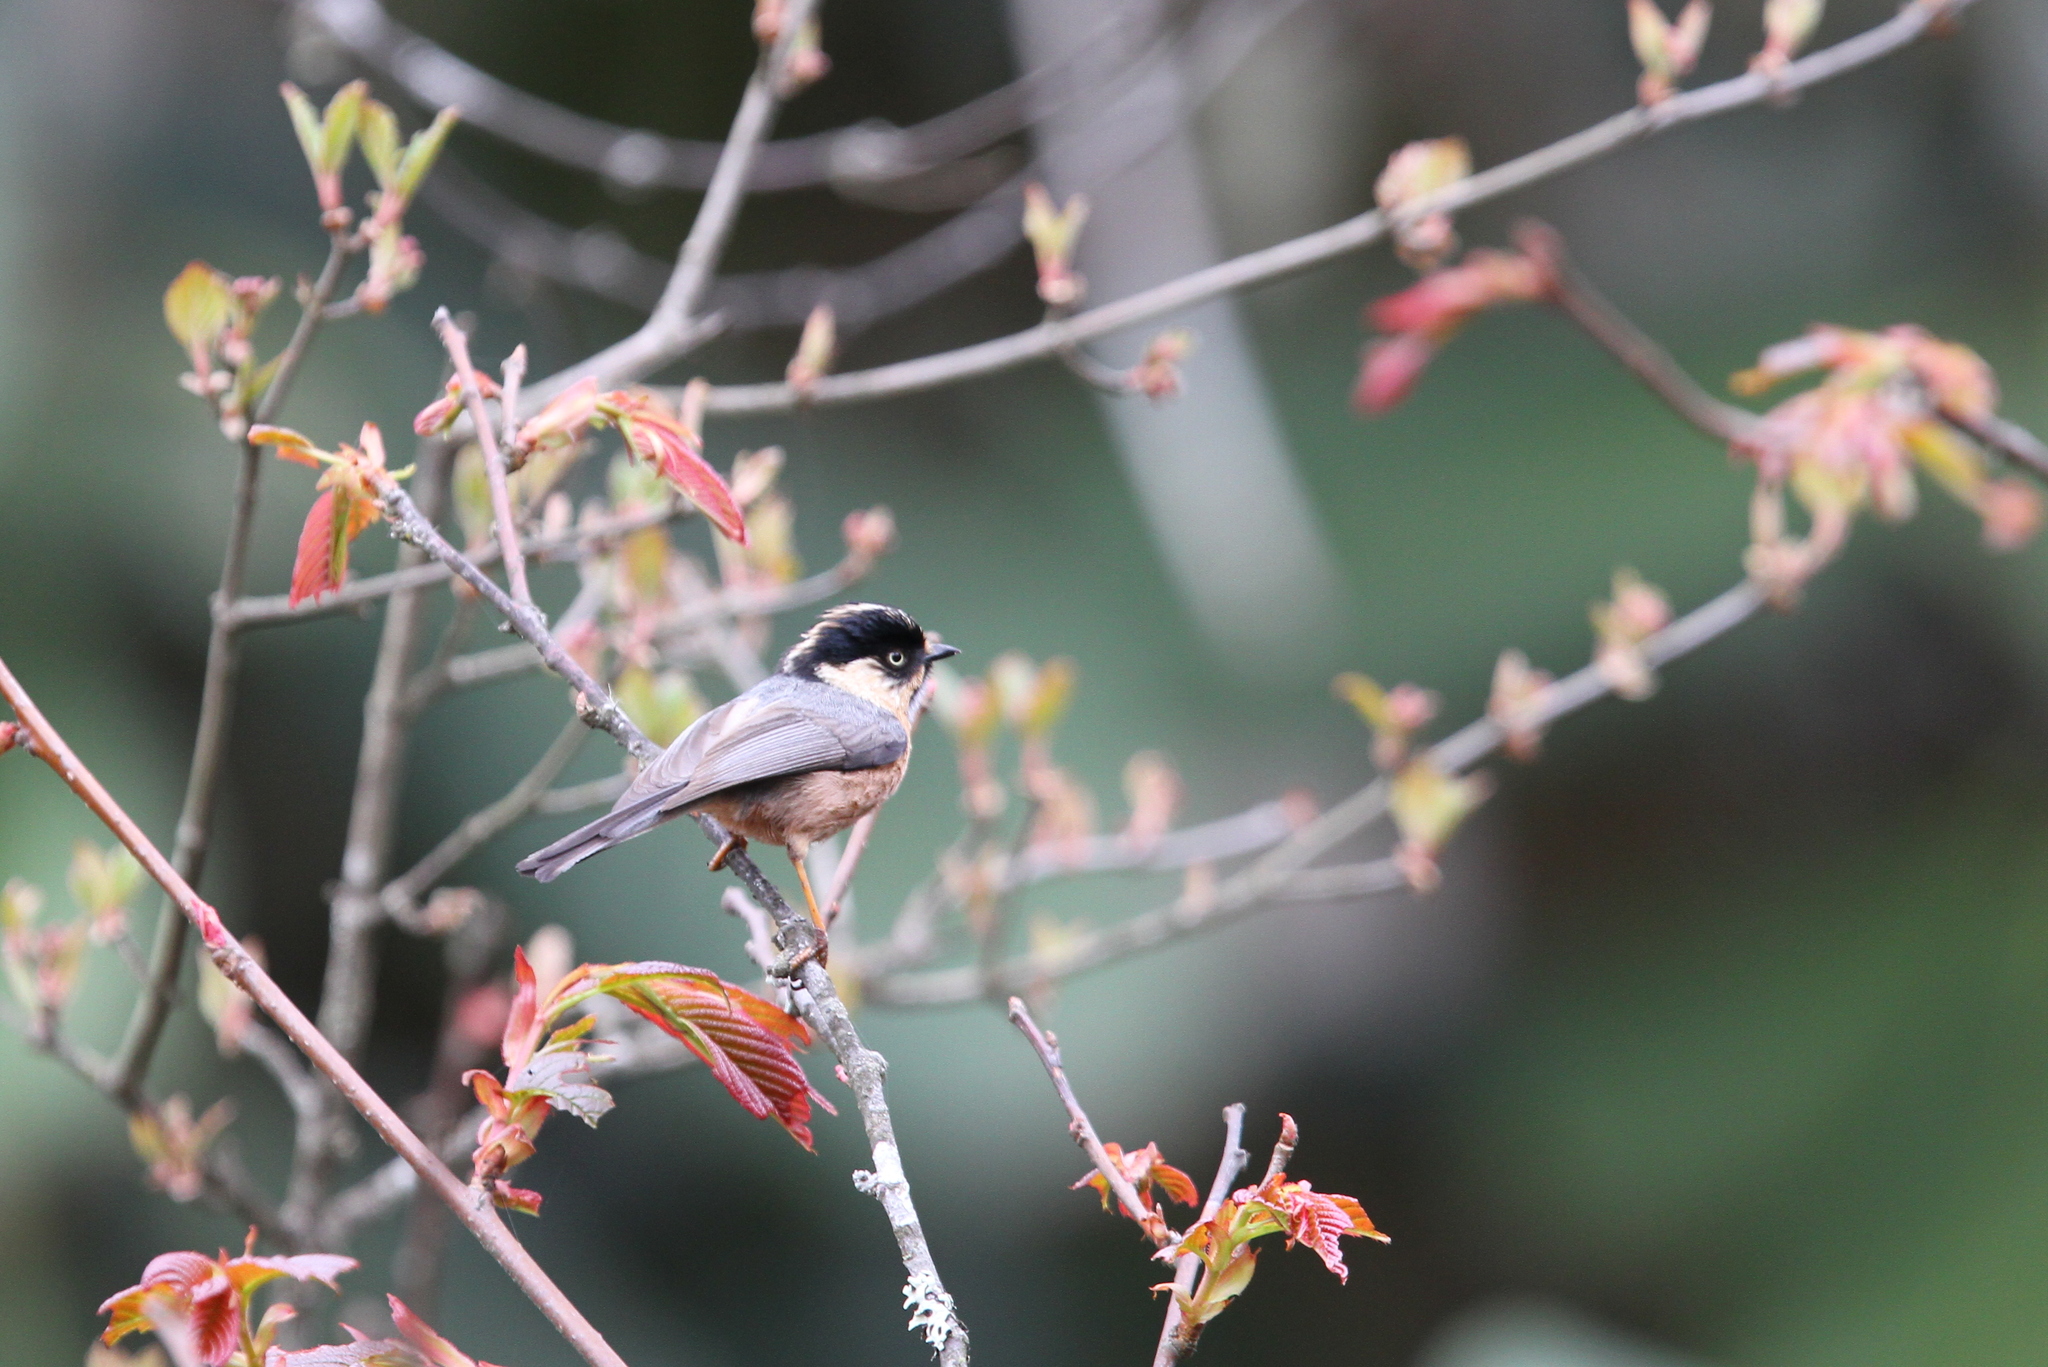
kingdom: Animalia
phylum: Chordata
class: Aves
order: Passeriformes
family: Aegithalidae
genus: Aegithalos
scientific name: Aegithalos iouschistos
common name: Rufous-fronted bushtit
